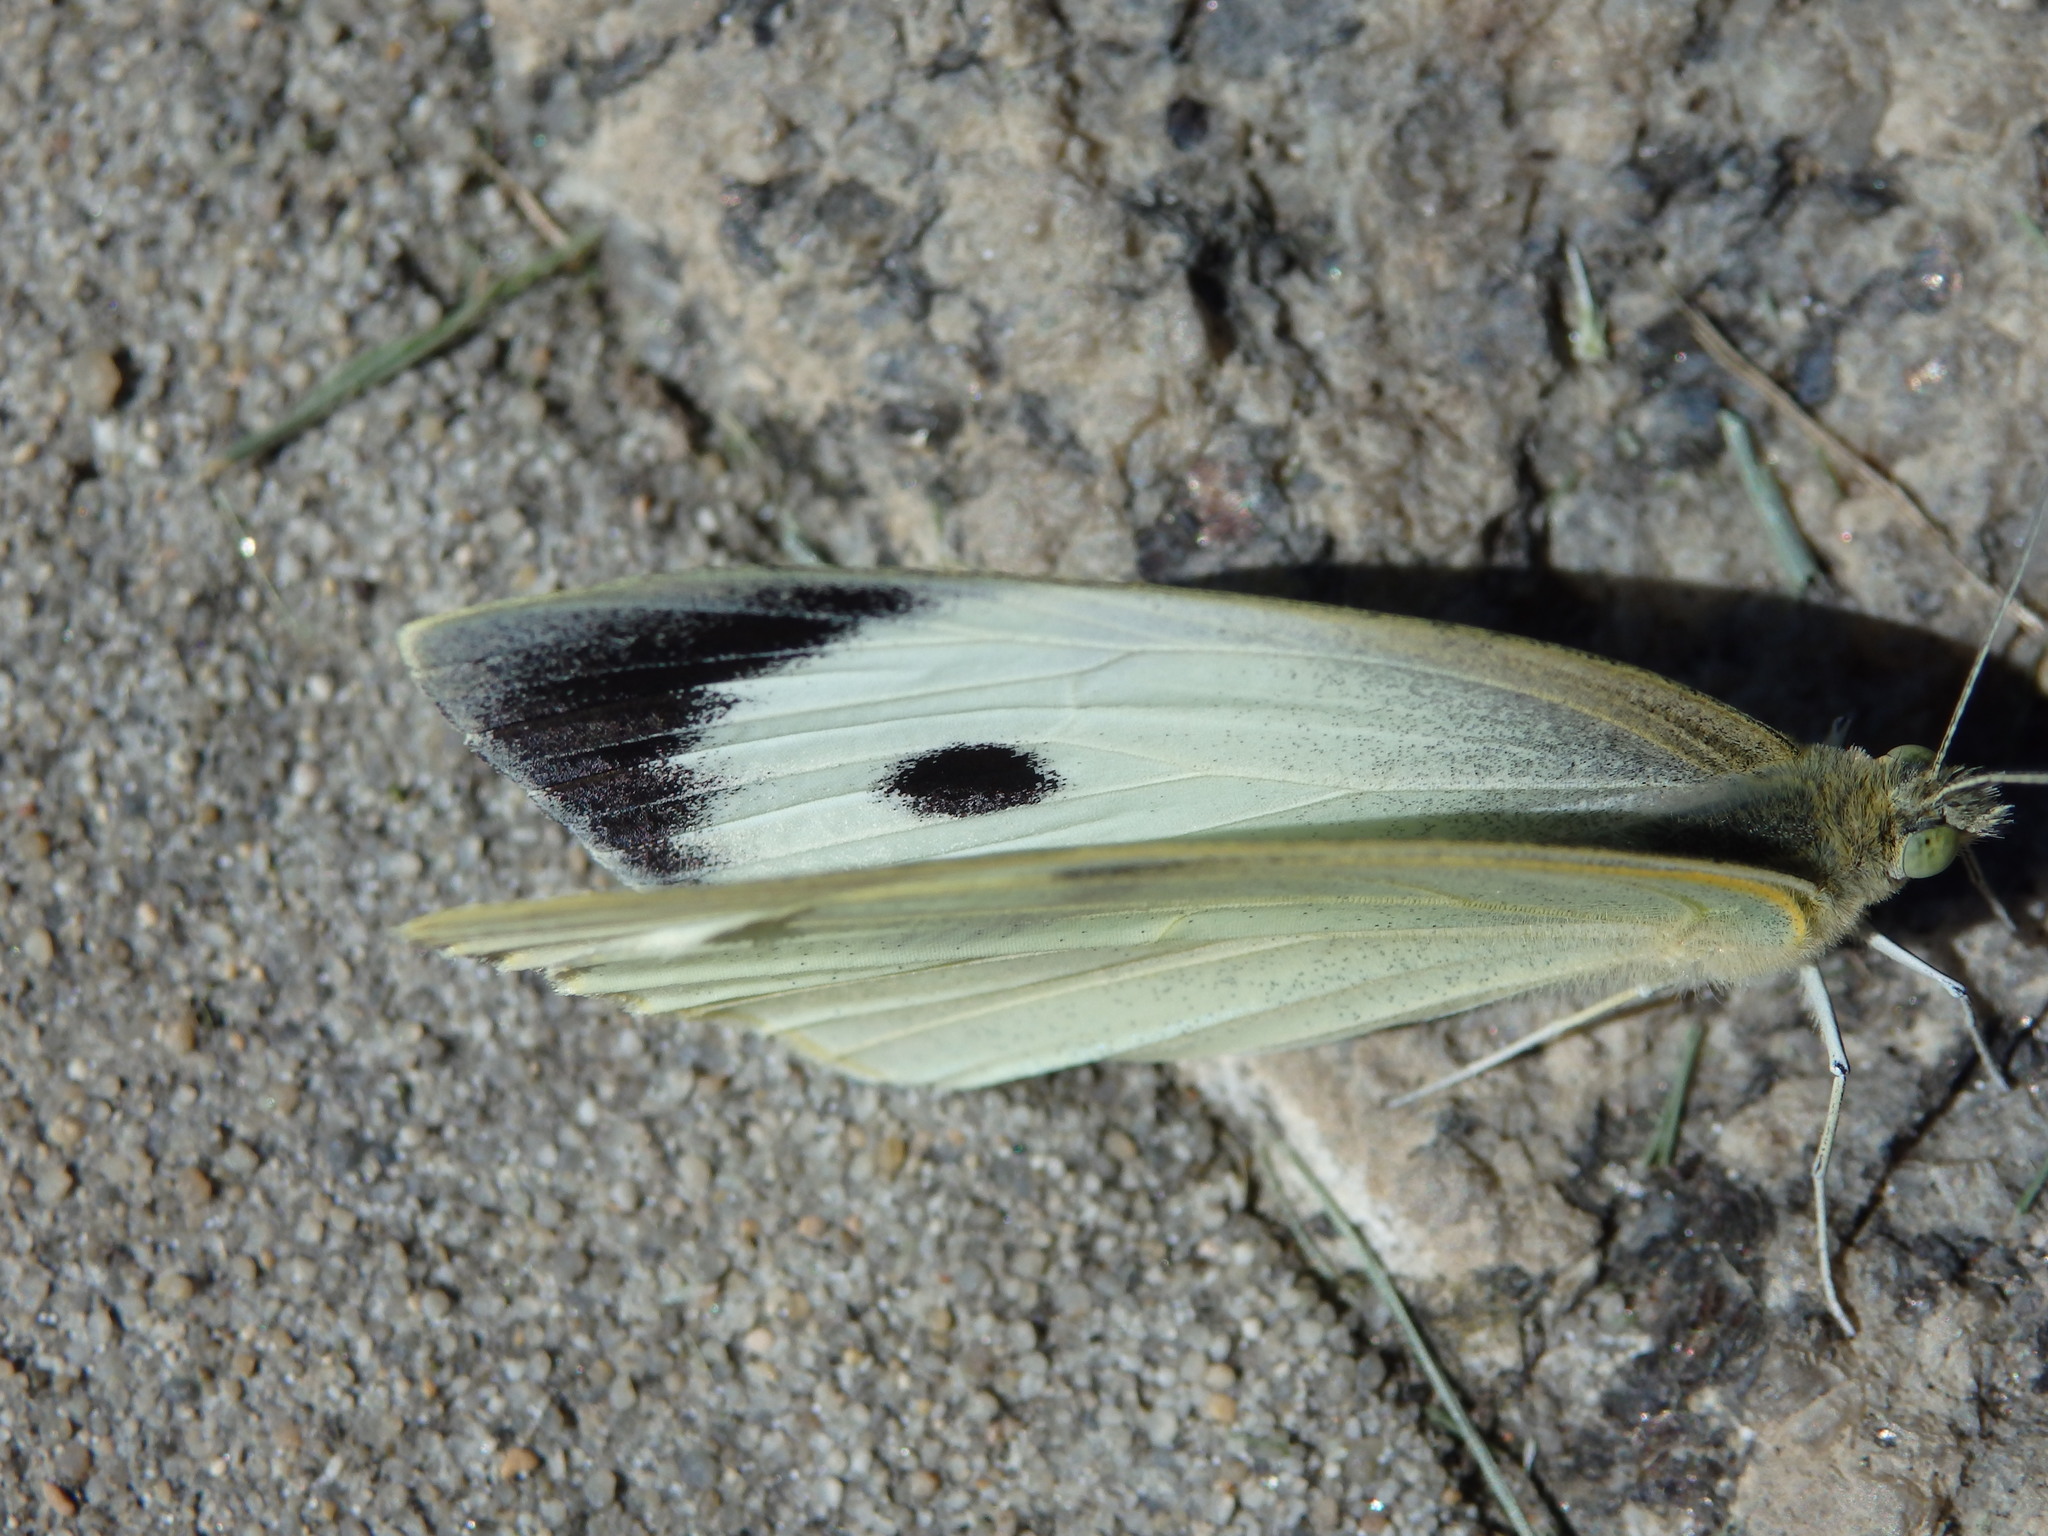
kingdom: Animalia
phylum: Arthropoda
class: Insecta
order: Lepidoptera
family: Pieridae
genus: Pieris
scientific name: Pieris brassicae
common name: Large white
